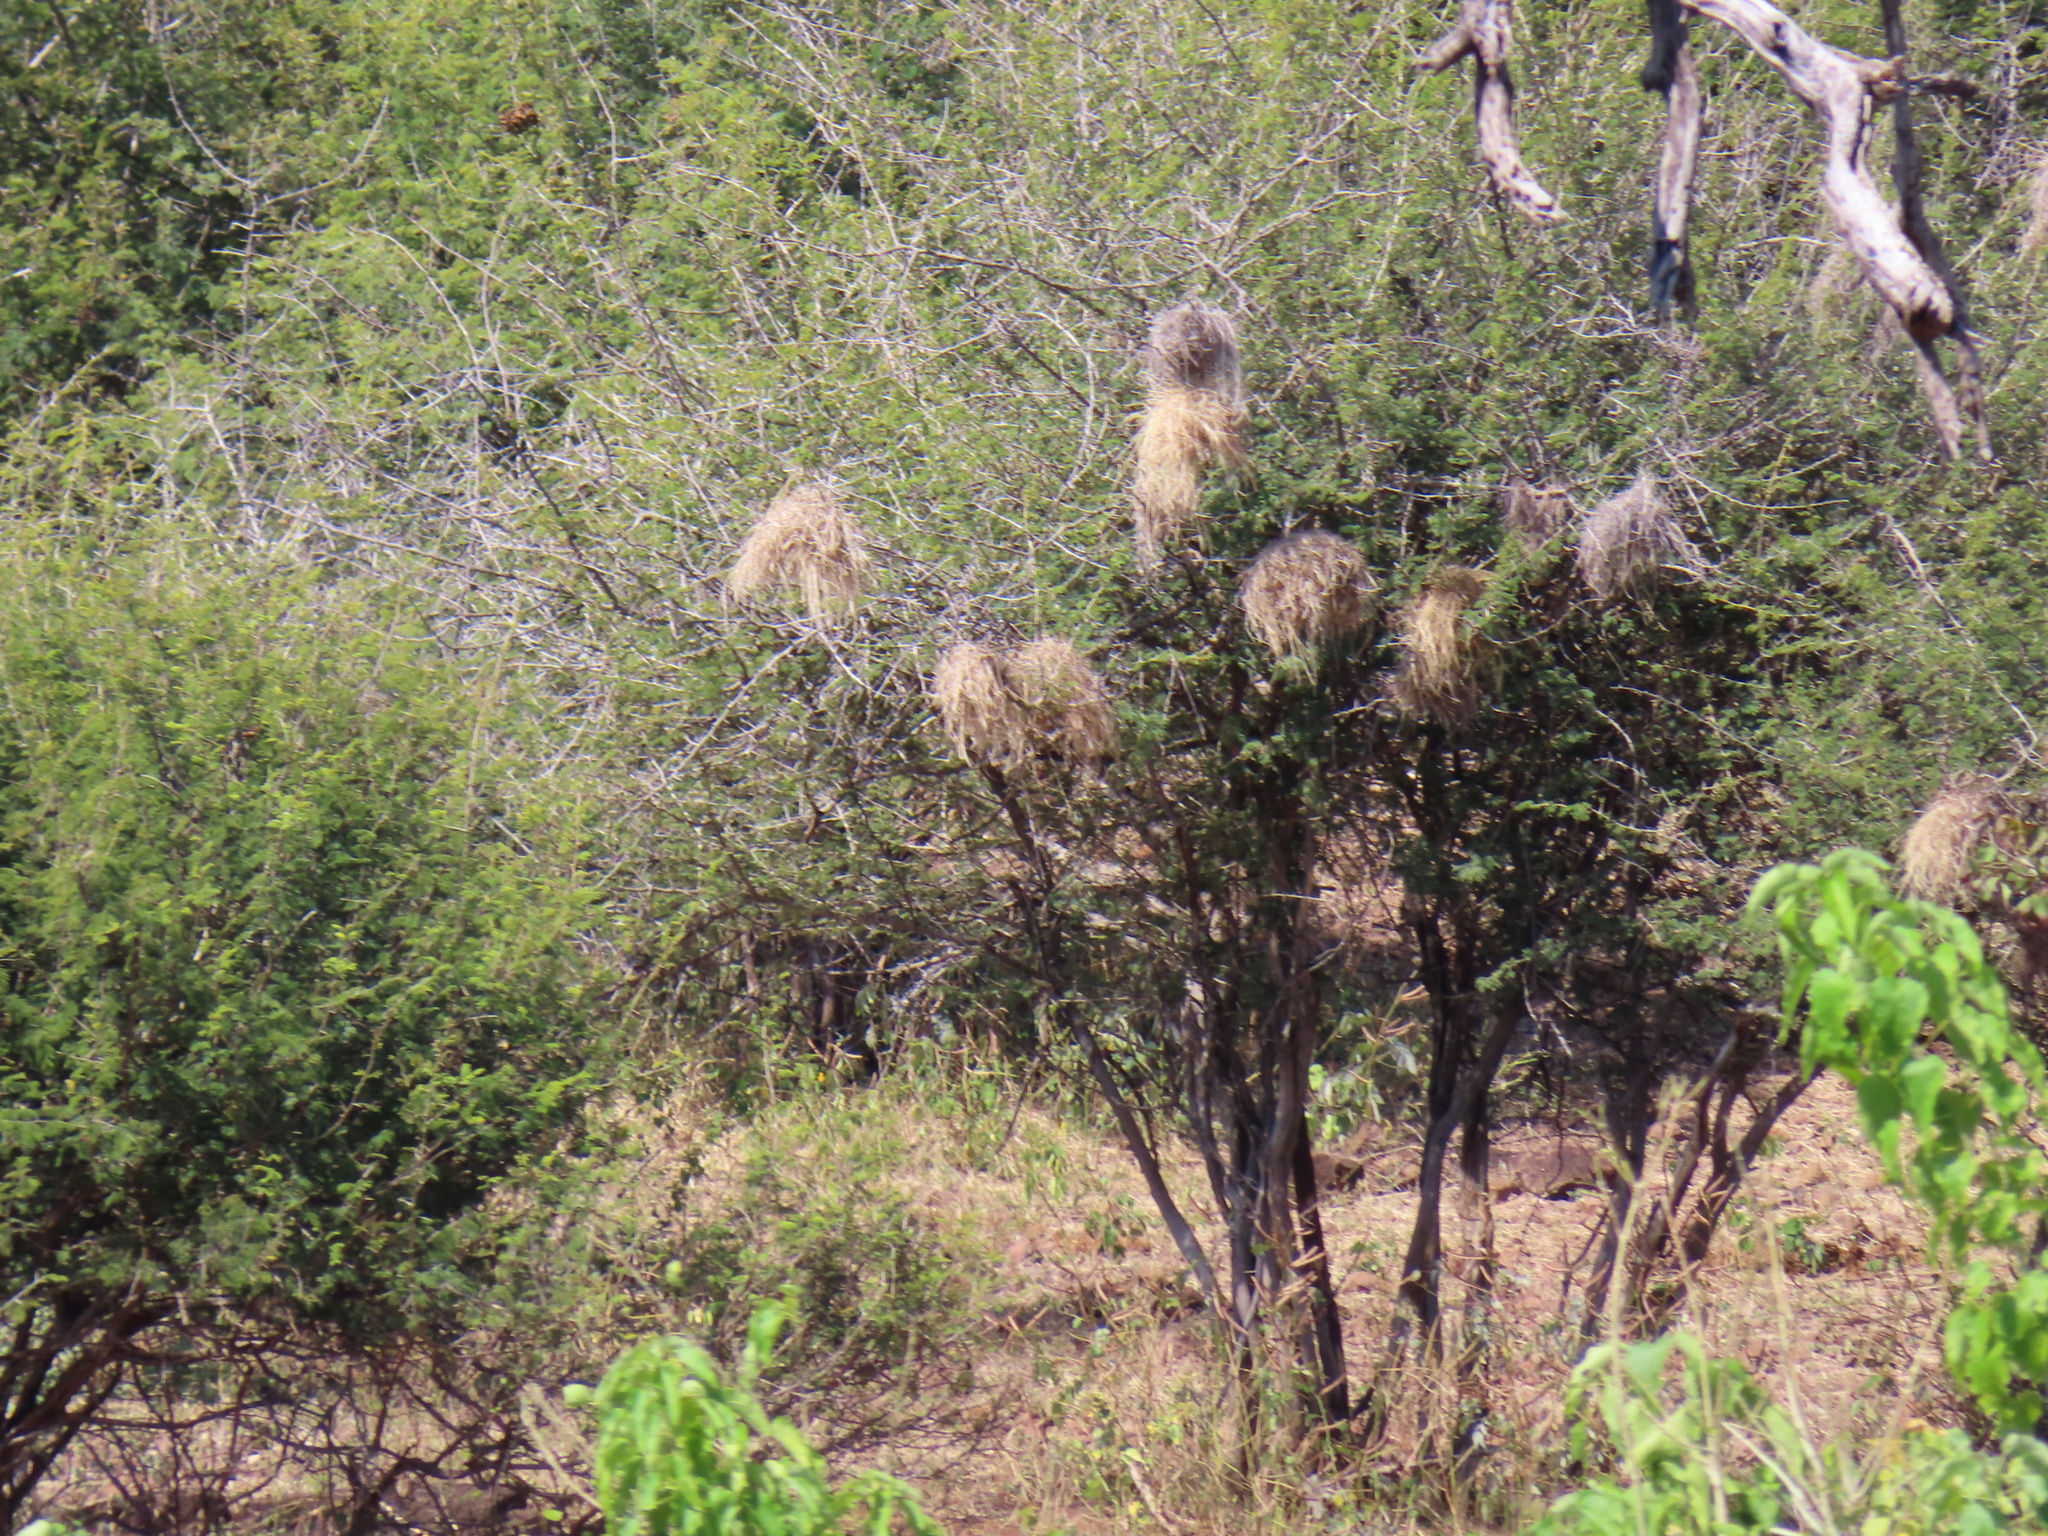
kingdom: Animalia
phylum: Chordata
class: Aves
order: Passeriformes
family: Passeridae
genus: Plocepasser
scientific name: Plocepasser mahali
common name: White-browed sparrow-weaver
